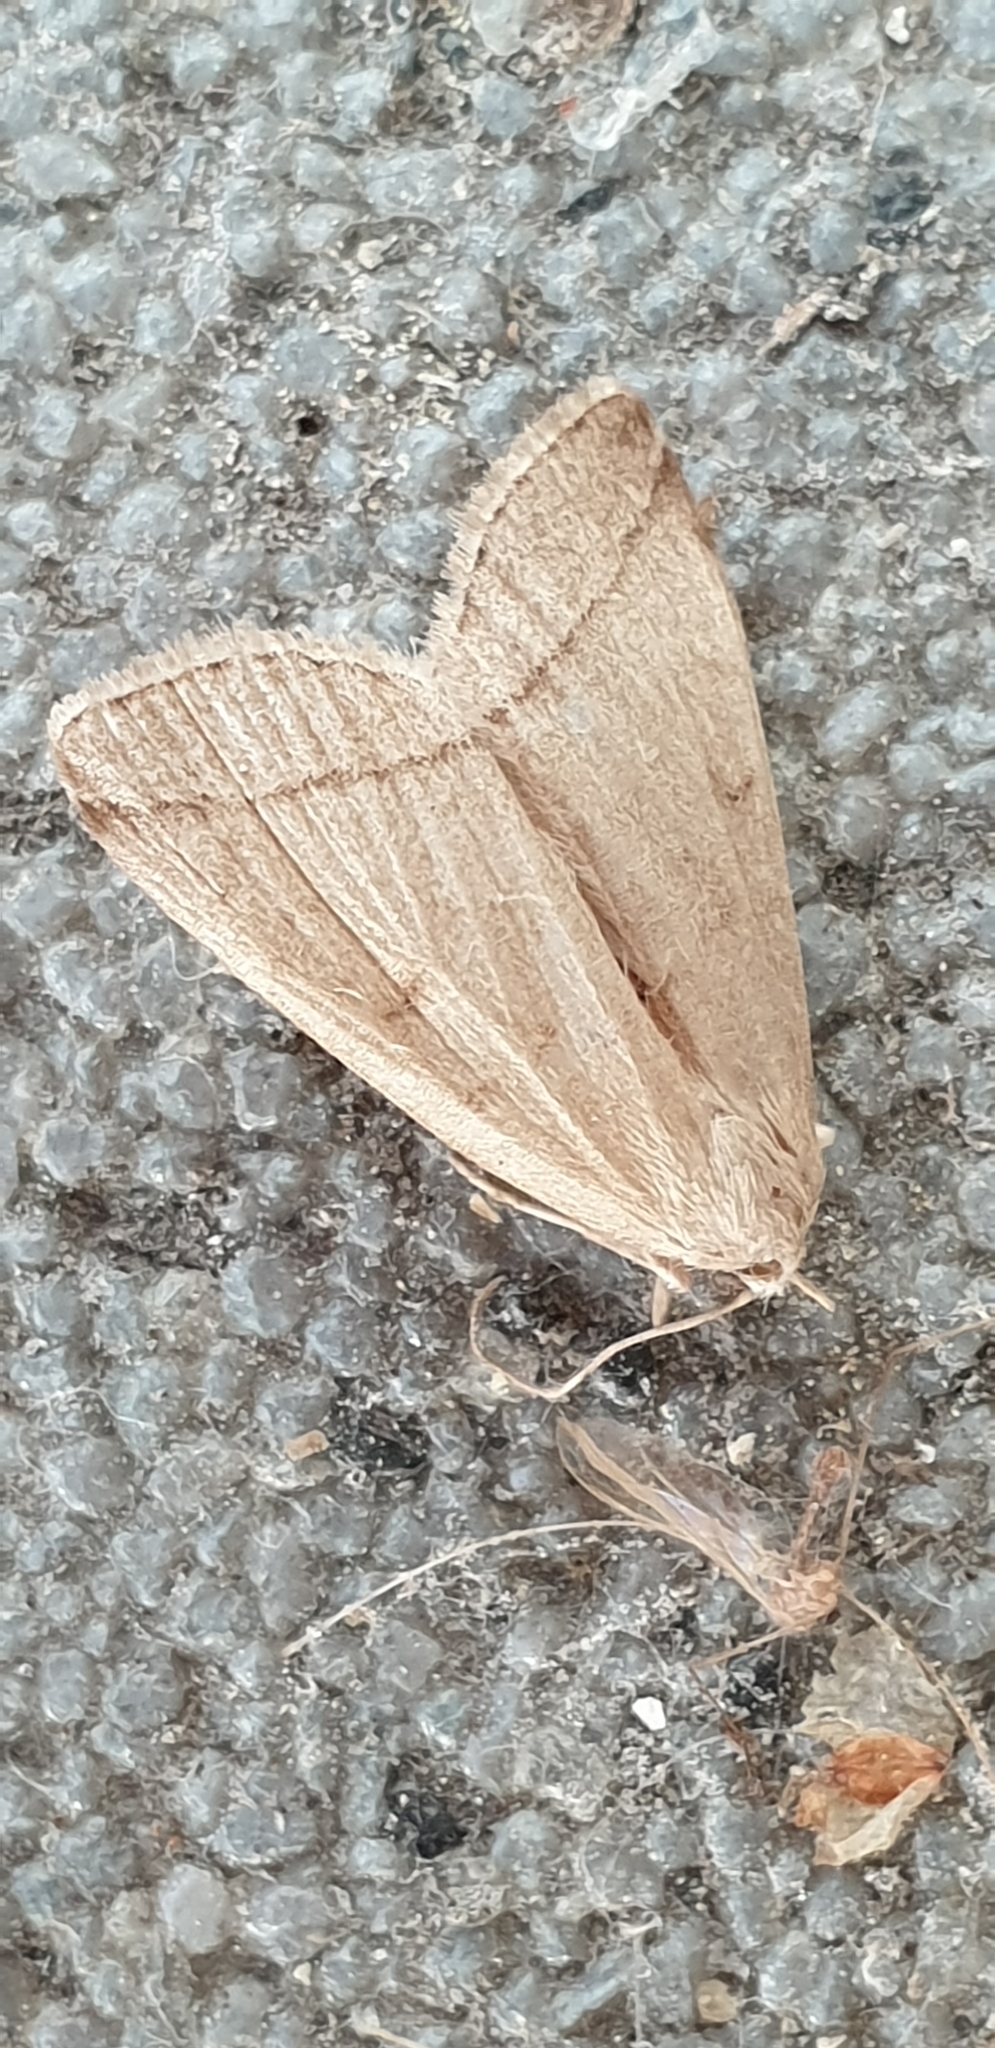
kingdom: Animalia
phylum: Arthropoda
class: Insecta
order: Lepidoptera
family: Erebidae
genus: Herminia
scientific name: Herminia grisealis
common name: Small fan-foot
